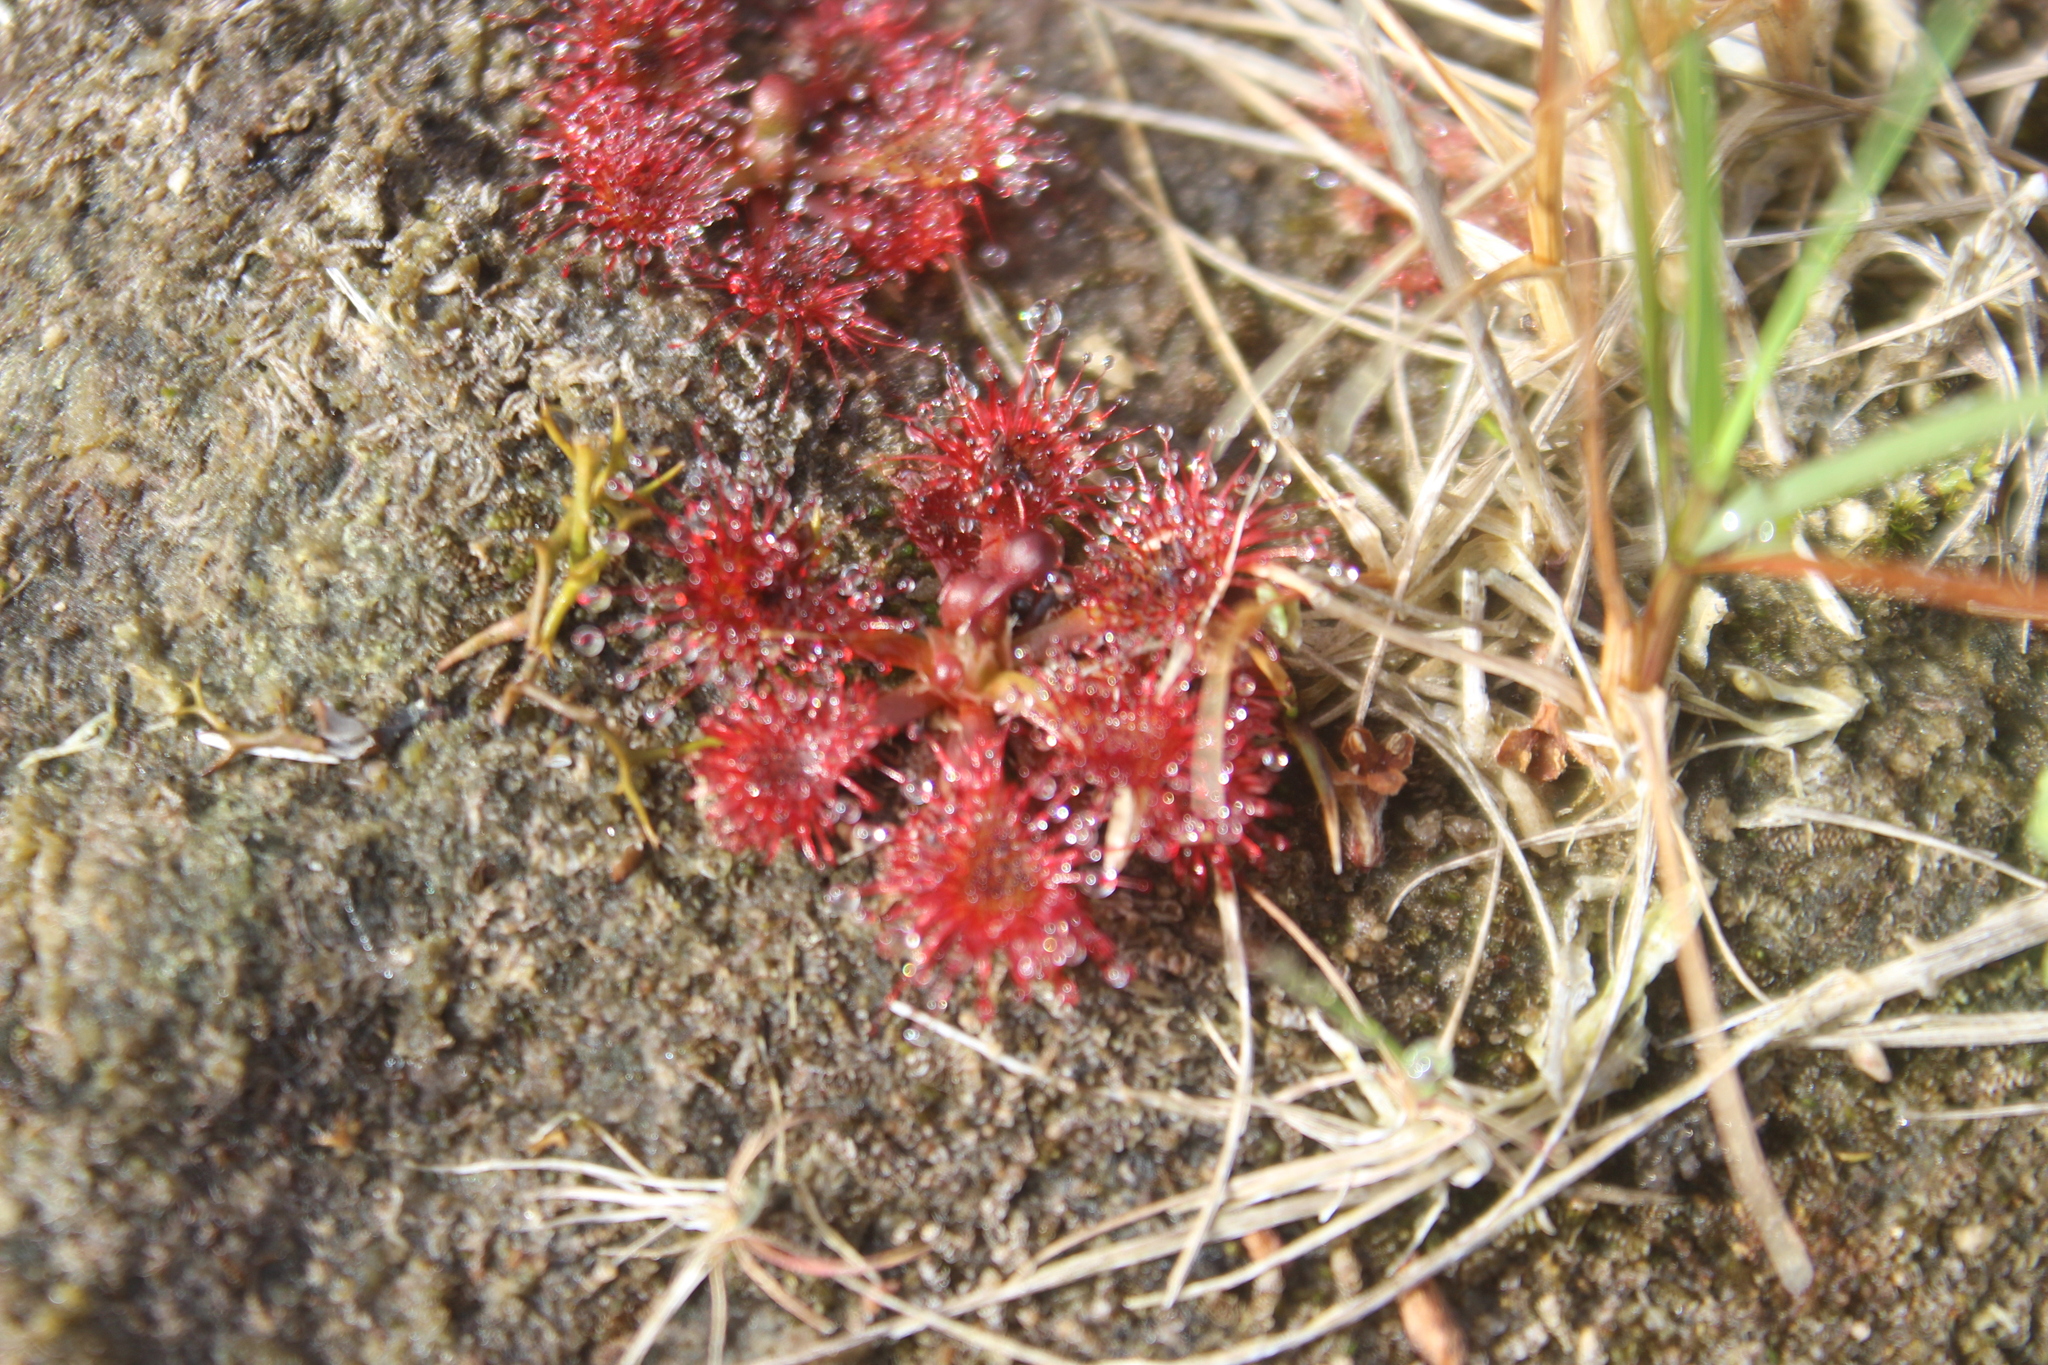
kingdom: Plantae
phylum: Tracheophyta
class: Magnoliopsida
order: Caryophyllales
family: Droseraceae
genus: Drosera
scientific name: Drosera spatulata
